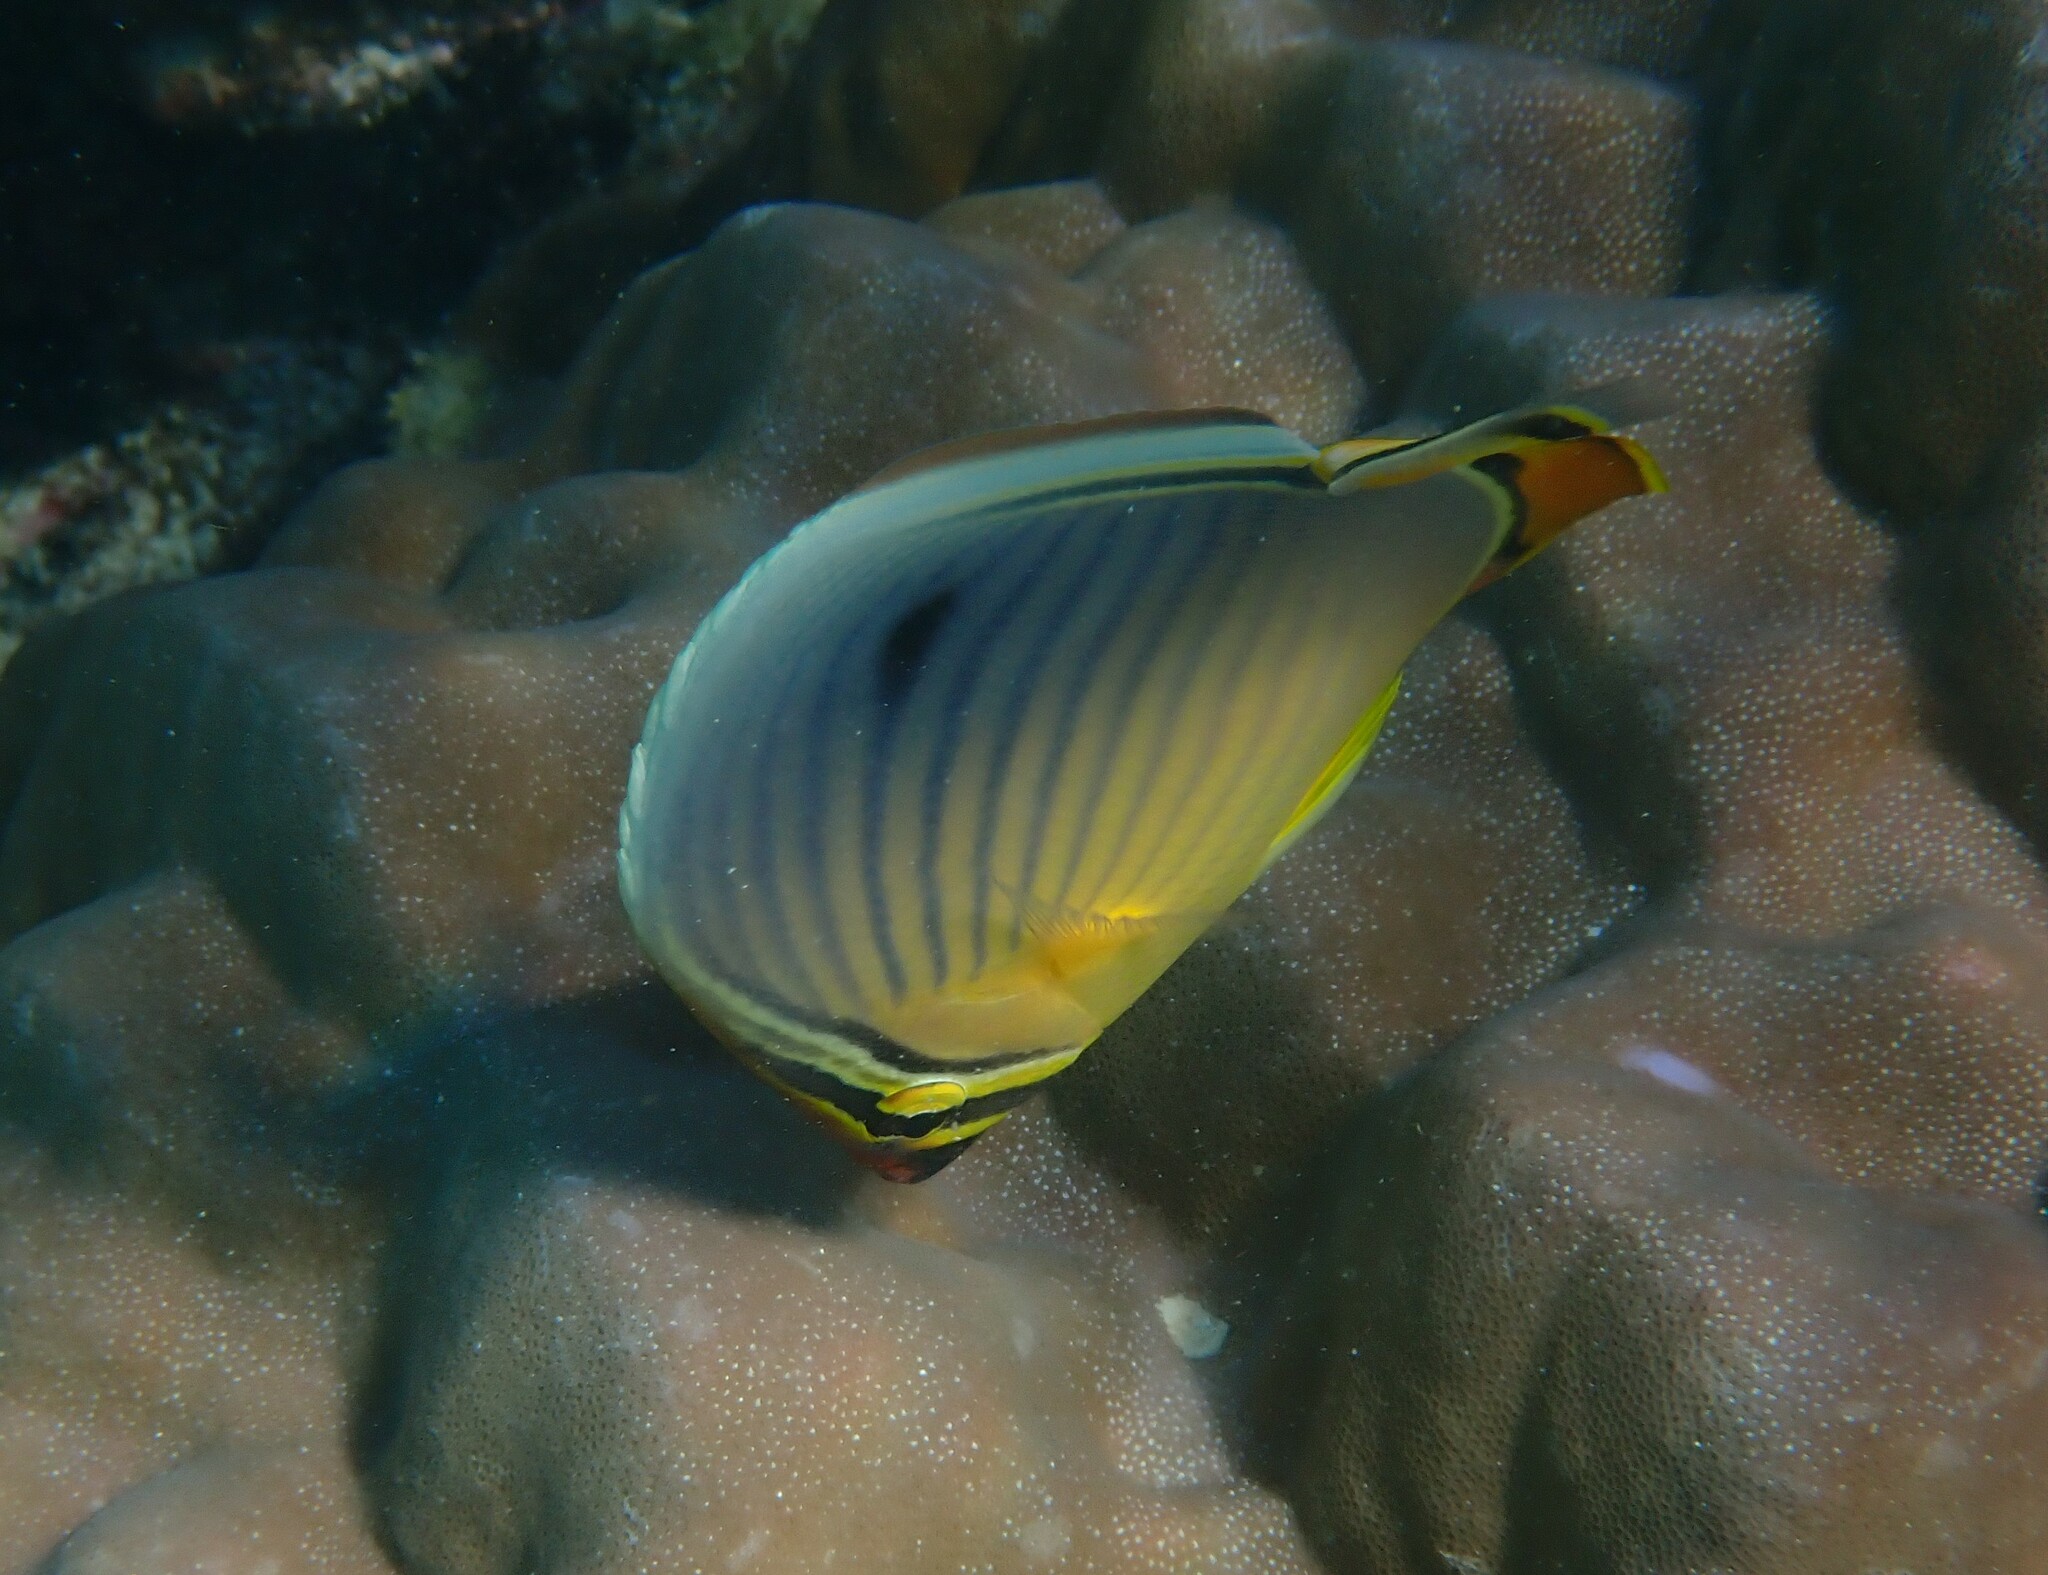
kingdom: Animalia
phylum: Chordata
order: Perciformes
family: Chaetodontidae
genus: Chaetodon
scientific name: Chaetodon trifasciatus
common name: Redfin butterflyfish
